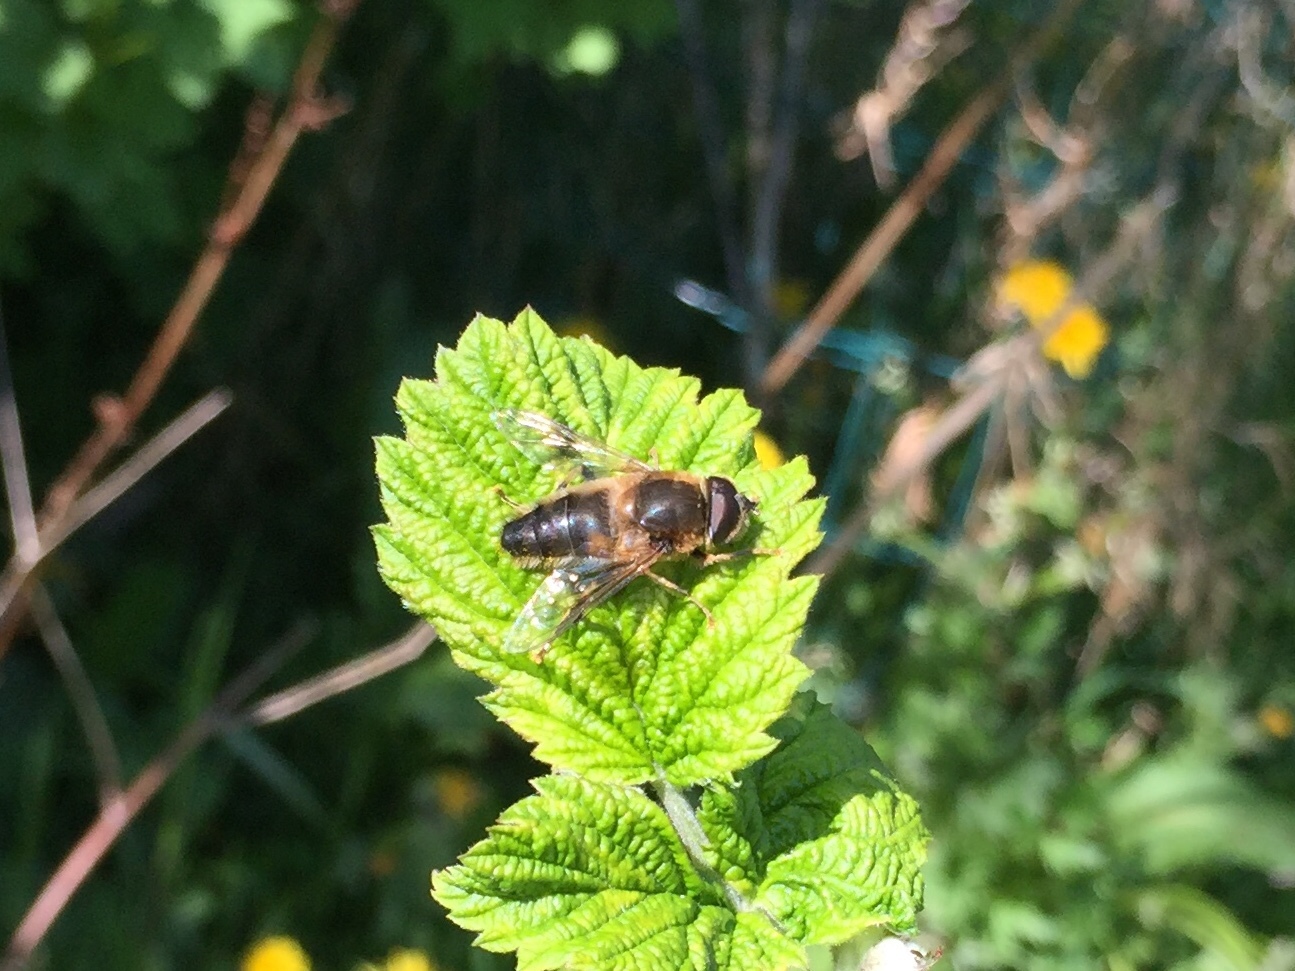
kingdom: Animalia
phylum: Arthropoda
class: Insecta
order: Diptera
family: Syrphidae
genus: Eristalis
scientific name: Eristalis pertinax
